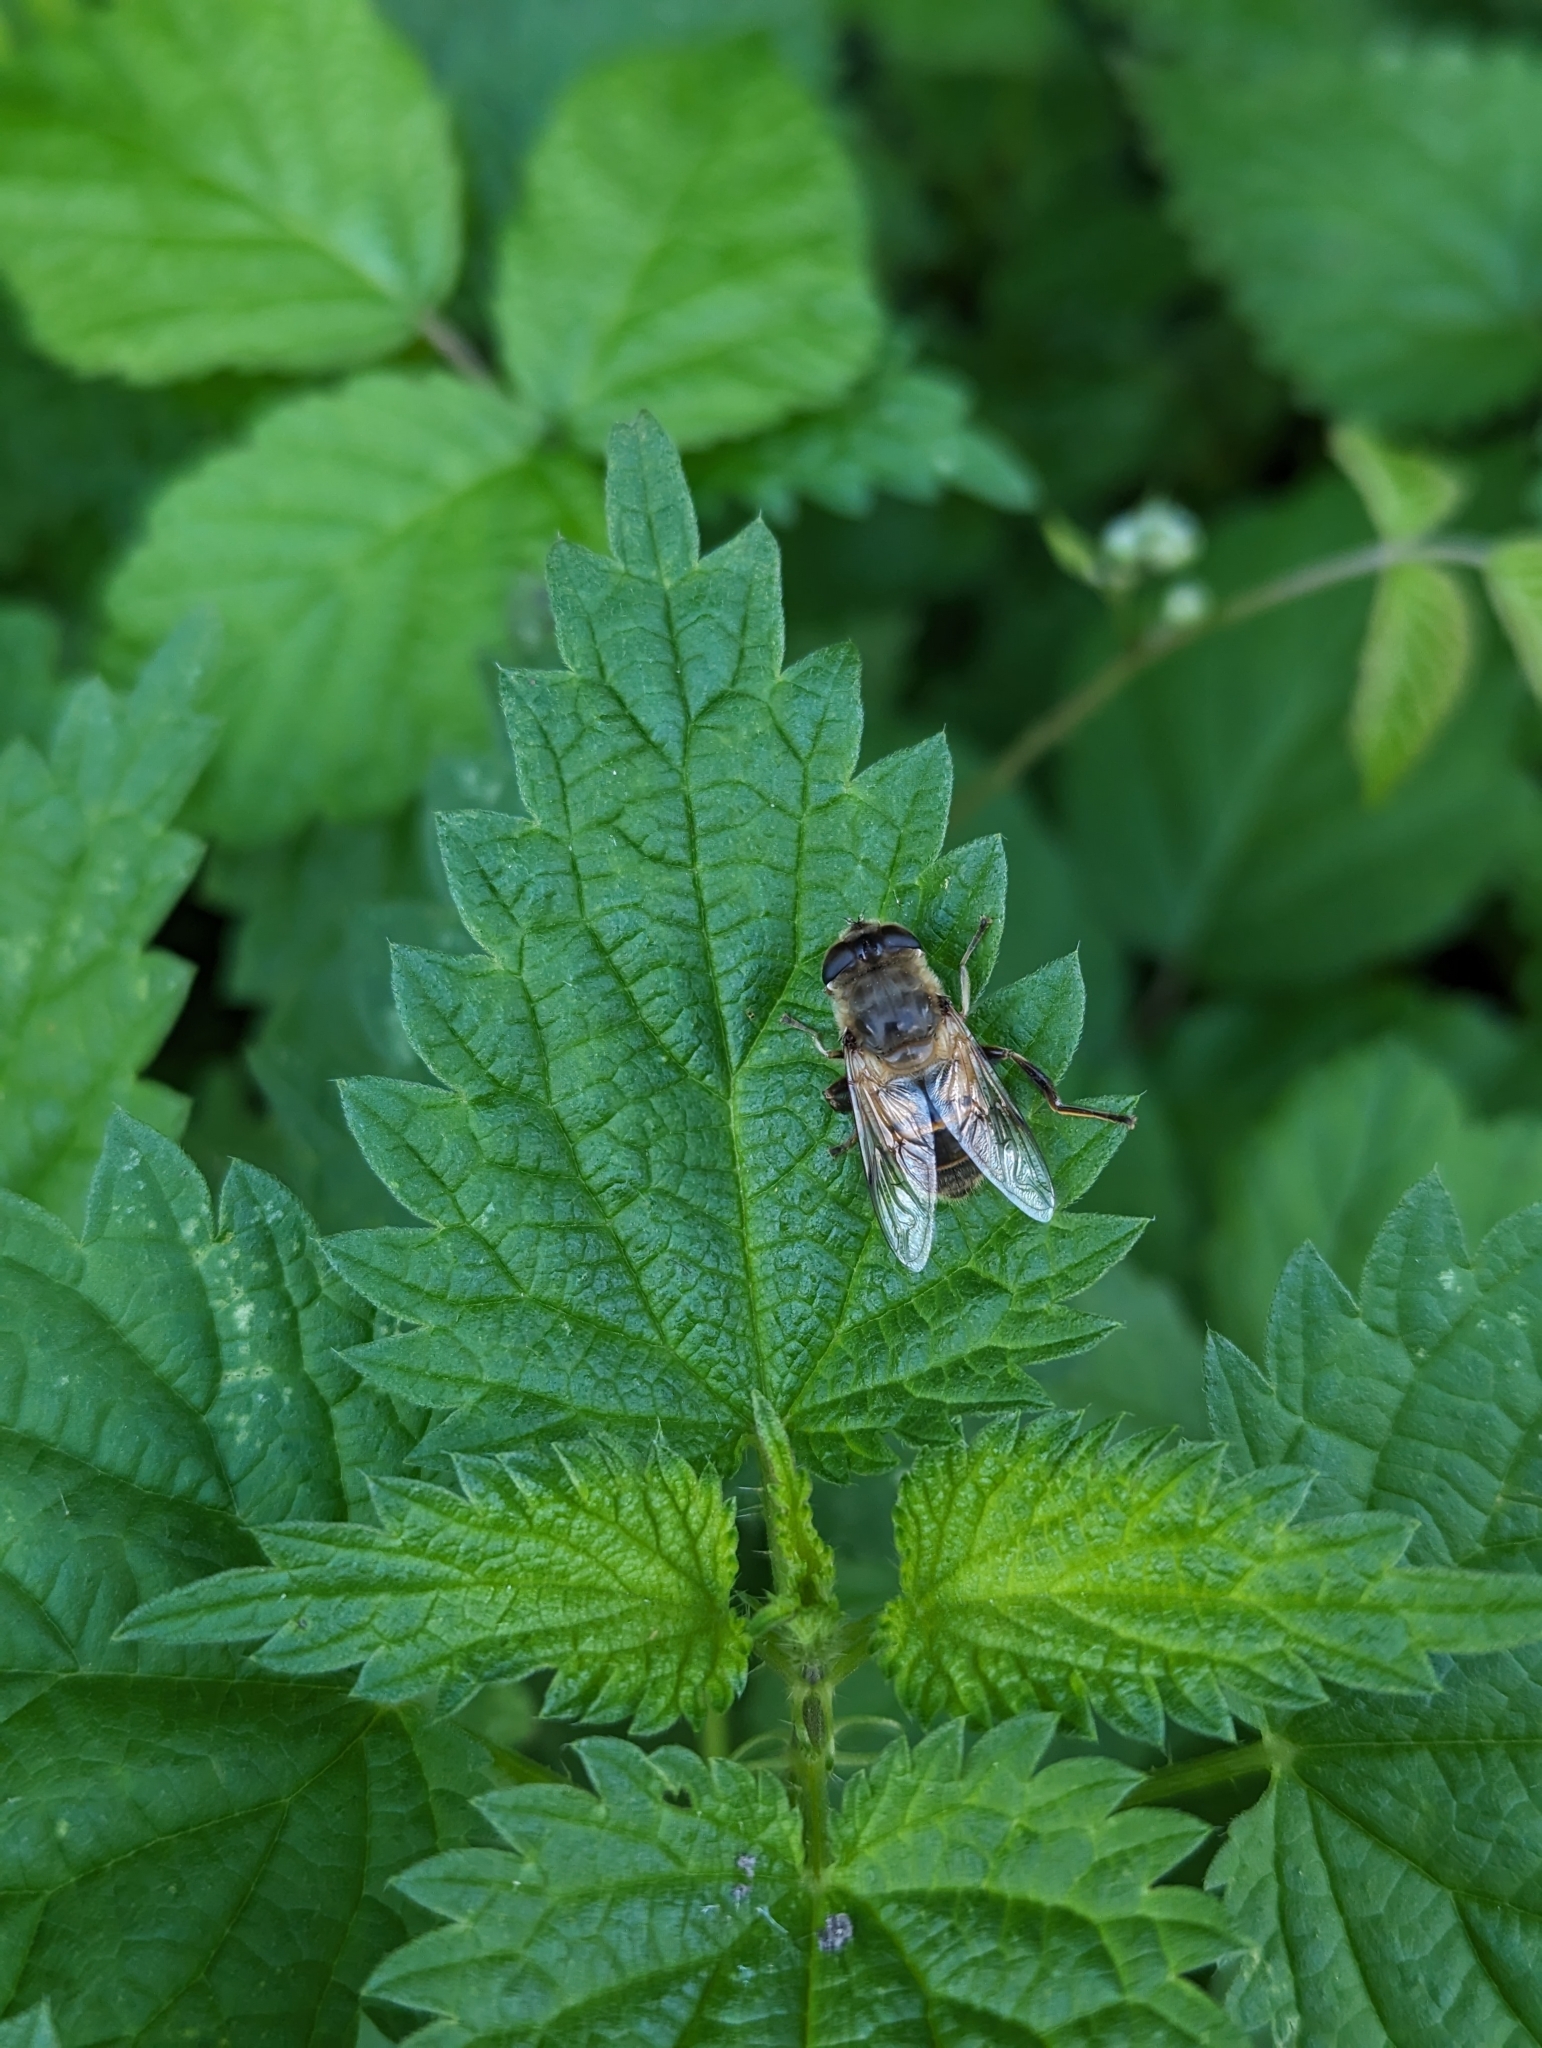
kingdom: Animalia
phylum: Arthropoda
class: Insecta
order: Diptera
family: Syrphidae
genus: Eristalis
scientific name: Eristalis tenax
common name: Drone fly
